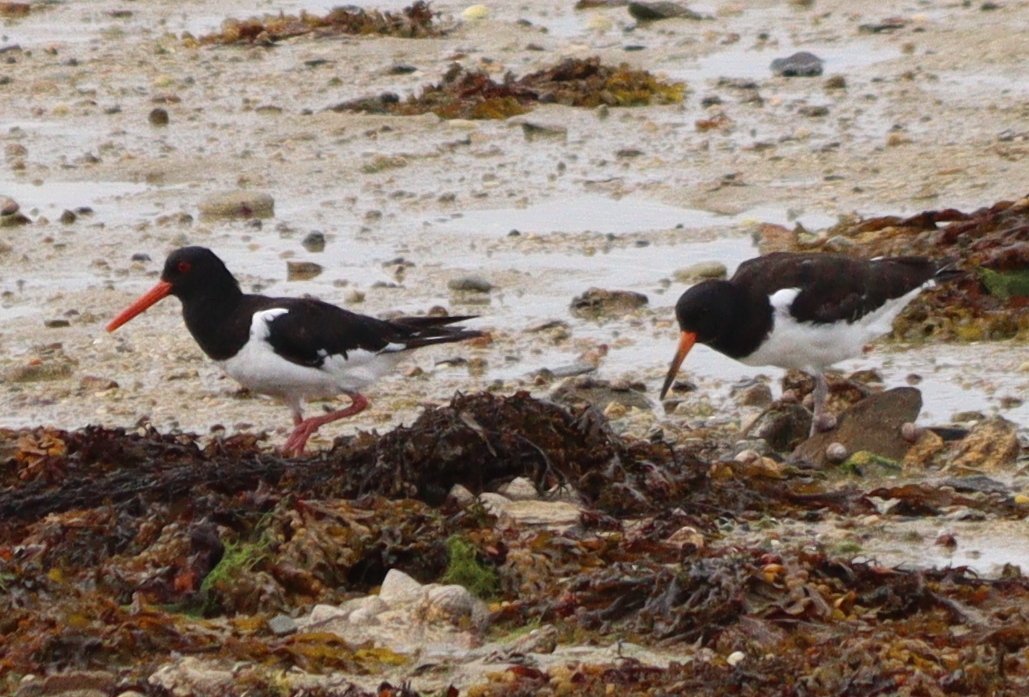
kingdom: Animalia
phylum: Chordata
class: Aves
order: Charadriiformes
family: Haematopodidae
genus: Haematopus
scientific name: Haematopus ostralegus
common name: Eurasian oystercatcher
